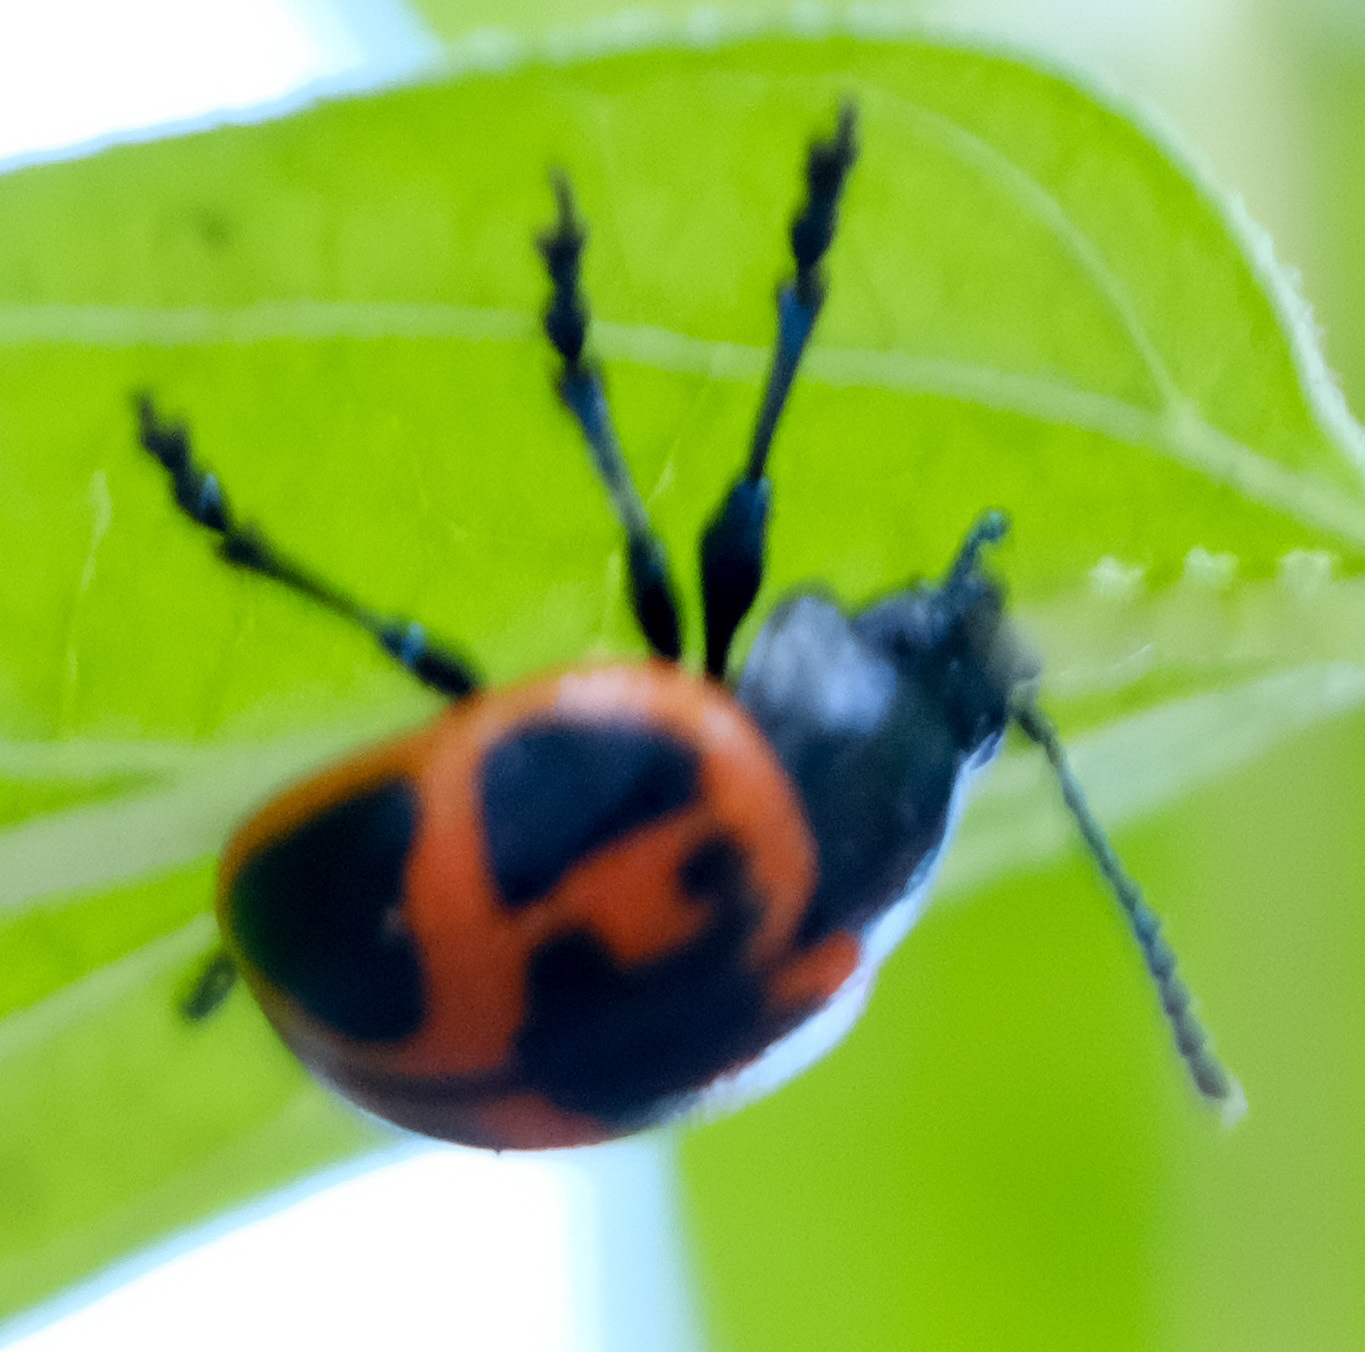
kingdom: Animalia
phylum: Arthropoda
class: Insecta
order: Coleoptera
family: Chrysomelidae
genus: Labidomera
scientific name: Labidomera clivicollis
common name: Swamp milkweed leaf beetle
